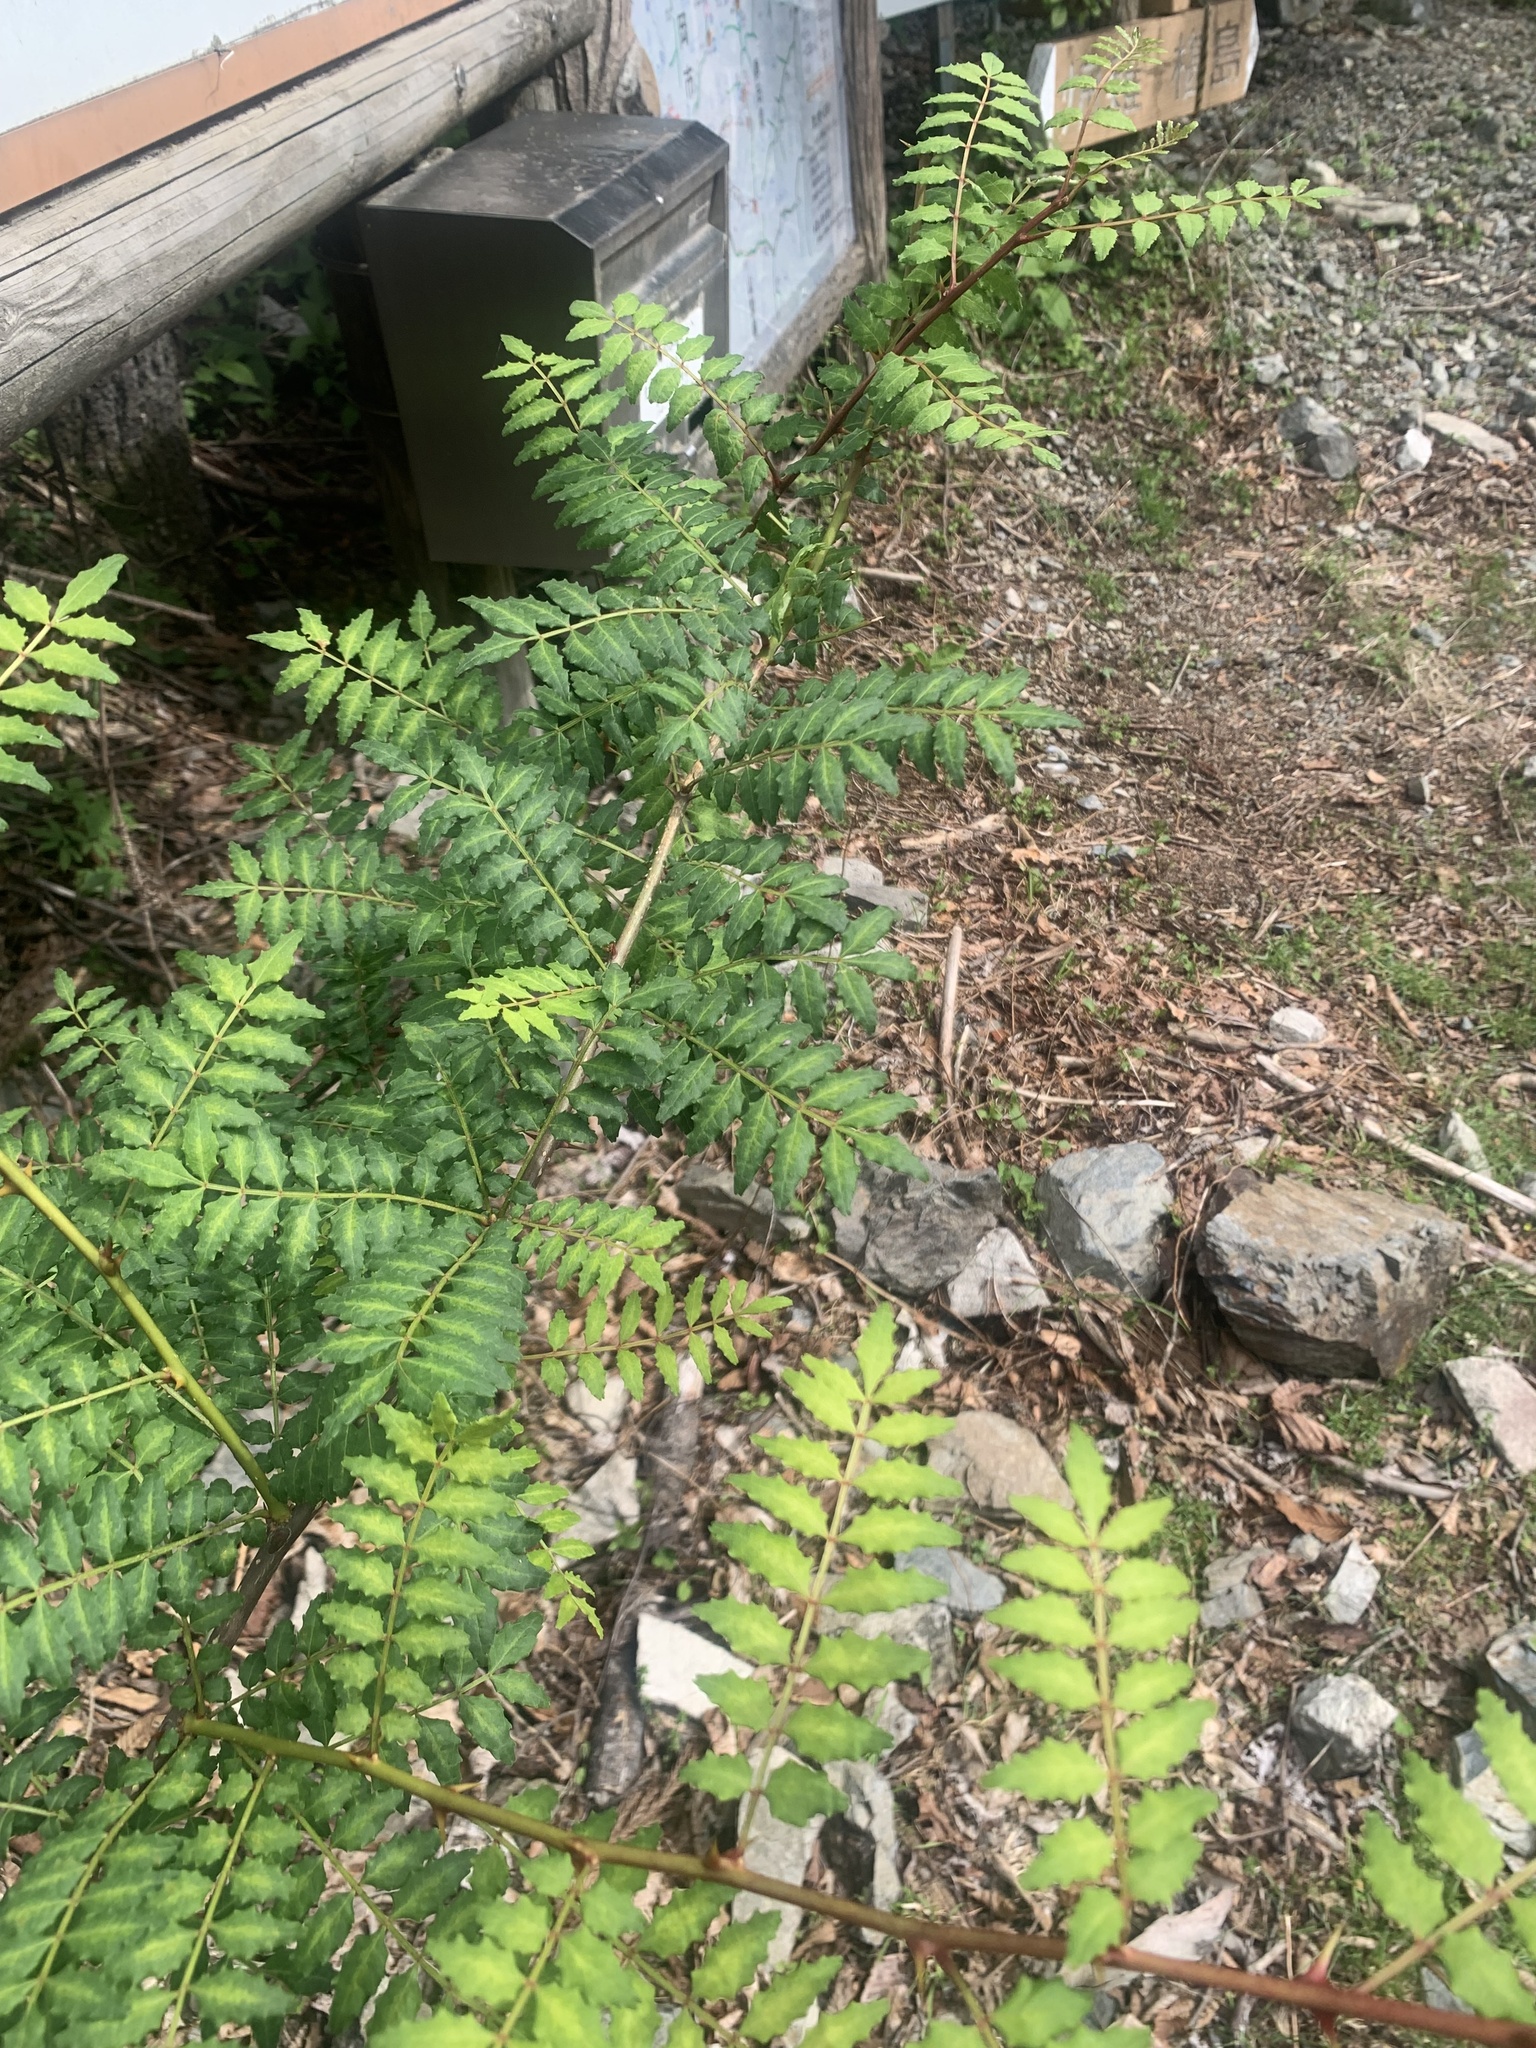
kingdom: Plantae
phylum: Tracheophyta
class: Magnoliopsida
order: Sapindales
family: Rutaceae
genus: Zanthoxylum
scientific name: Zanthoxylum piperitum
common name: Japanese-pepper
